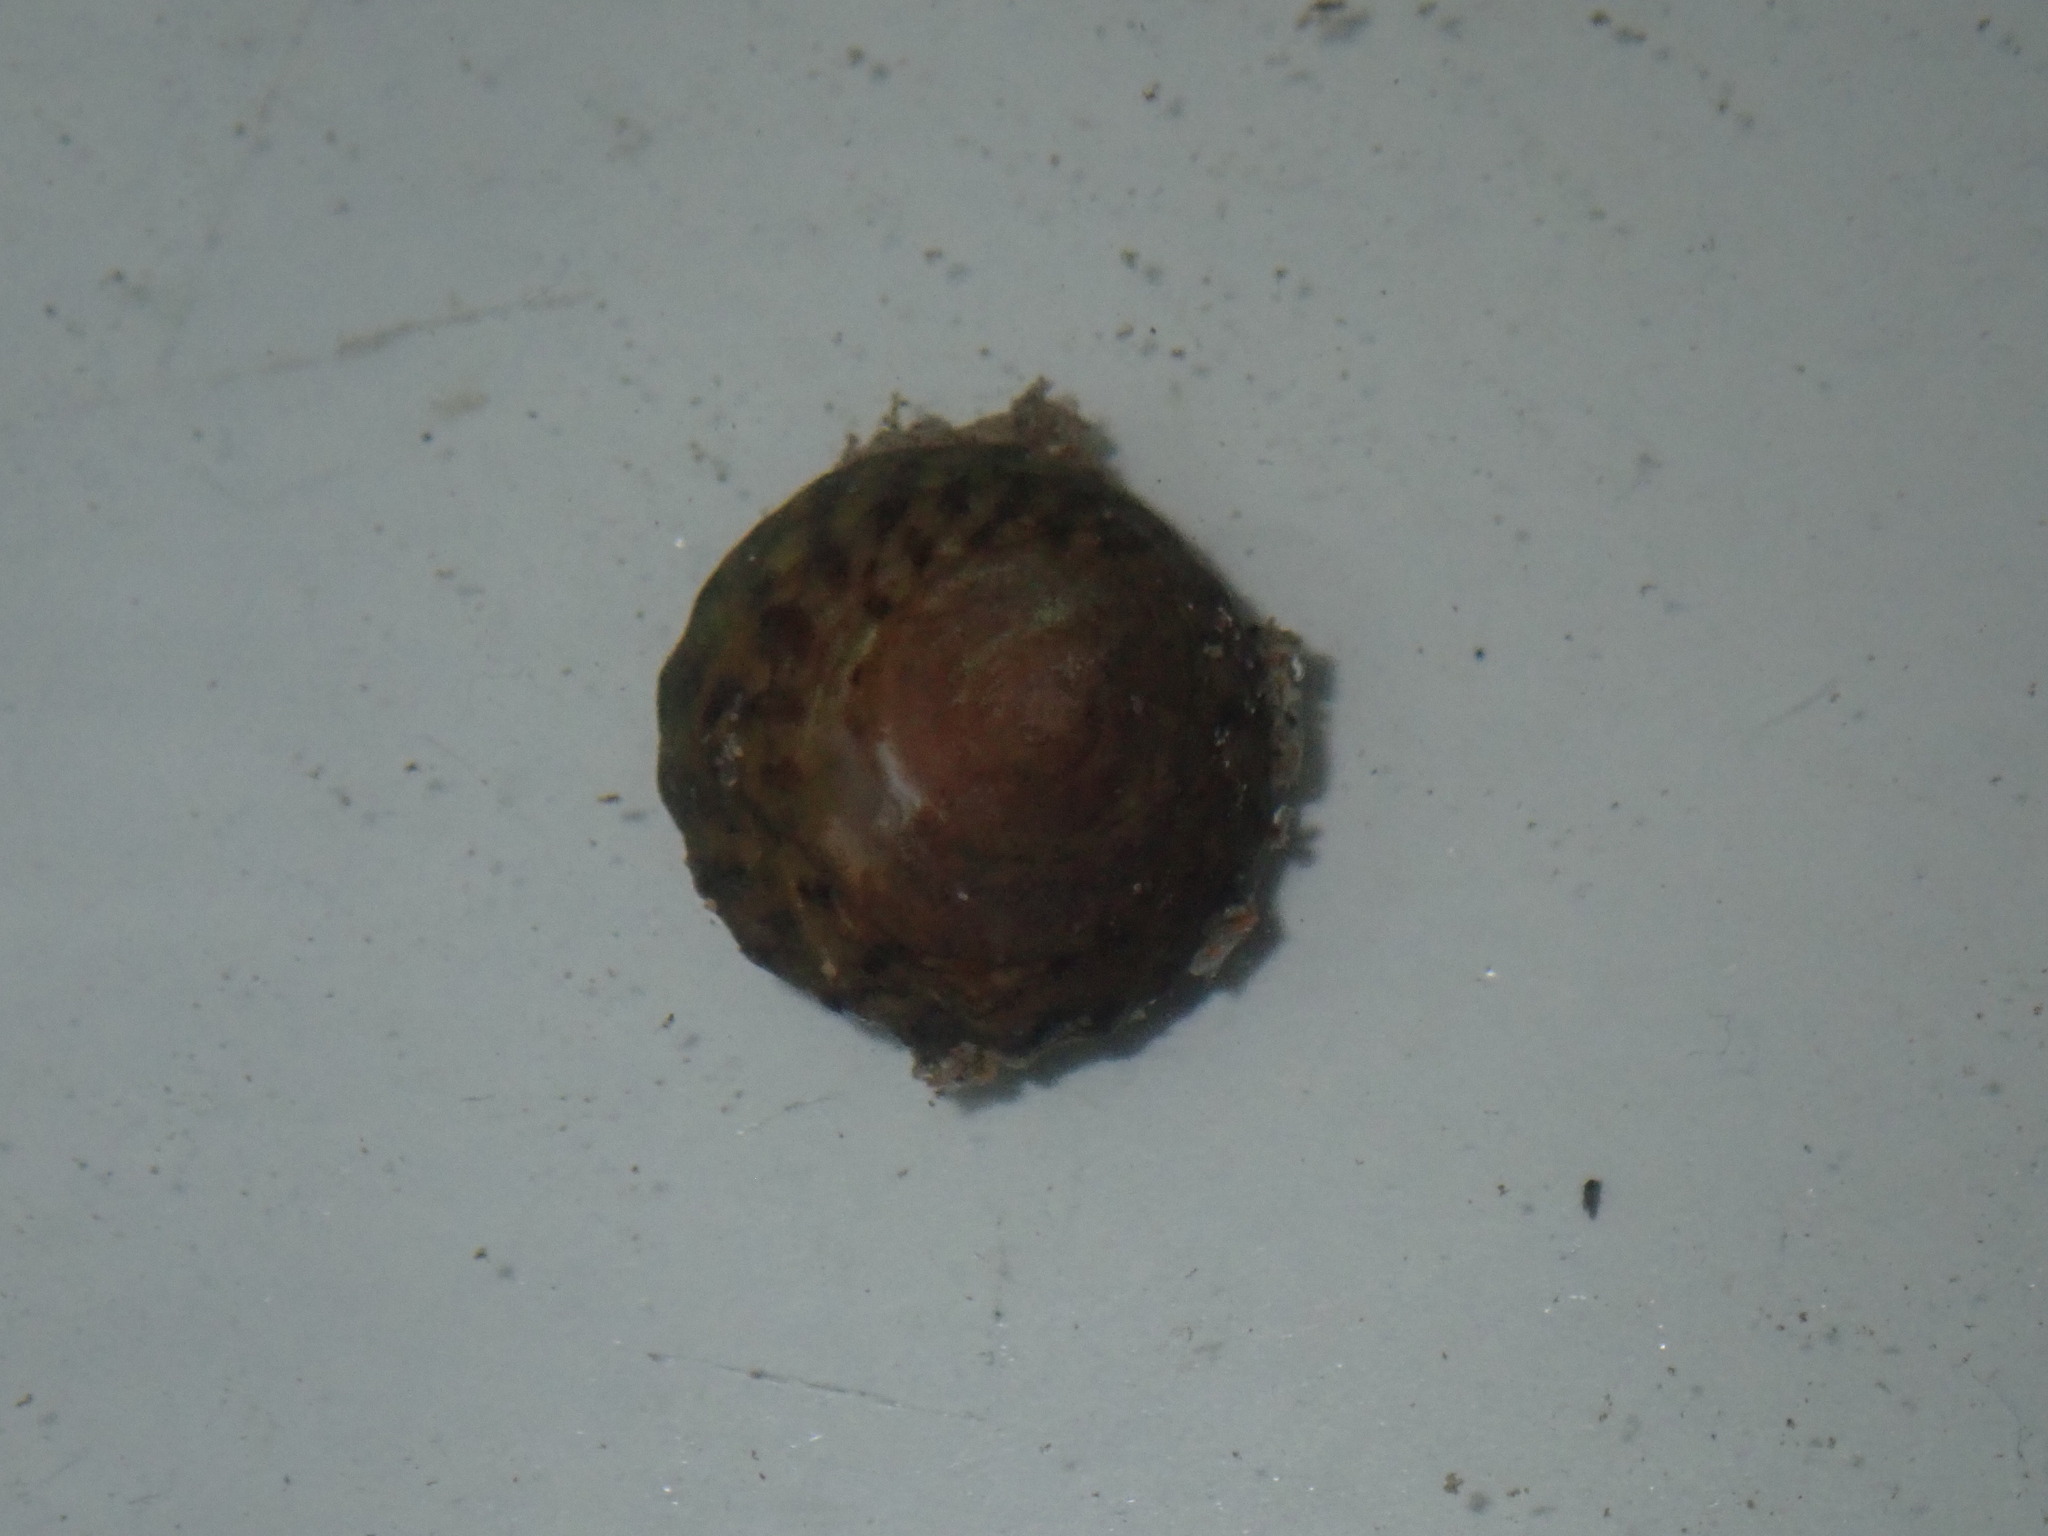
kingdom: Animalia
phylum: Mollusca
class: Gastropoda
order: Littorinimorpha
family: Littorinidae
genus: Bembicium
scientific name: Bembicium nanum
